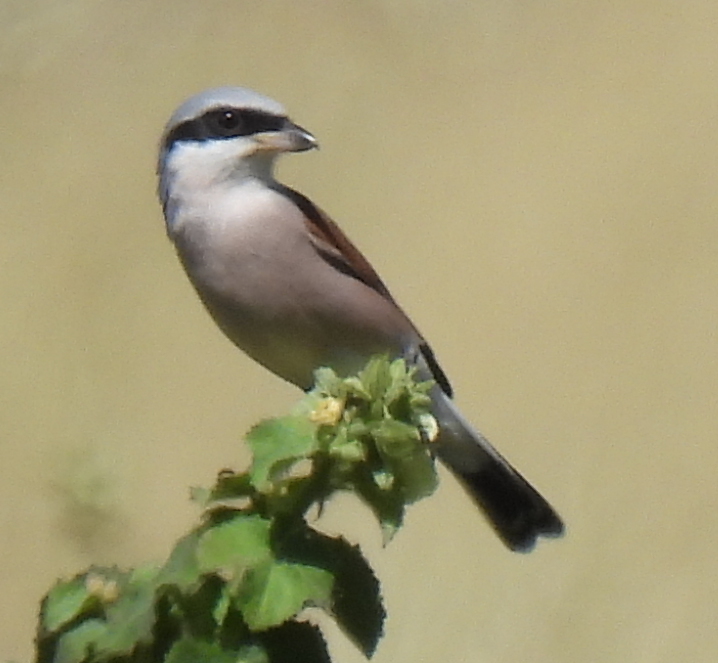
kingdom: Animalia
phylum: Chordata
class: Aves
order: Passeriformes
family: Laniidae
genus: Lanius
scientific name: Lanius collurio
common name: Red-backed shrike
